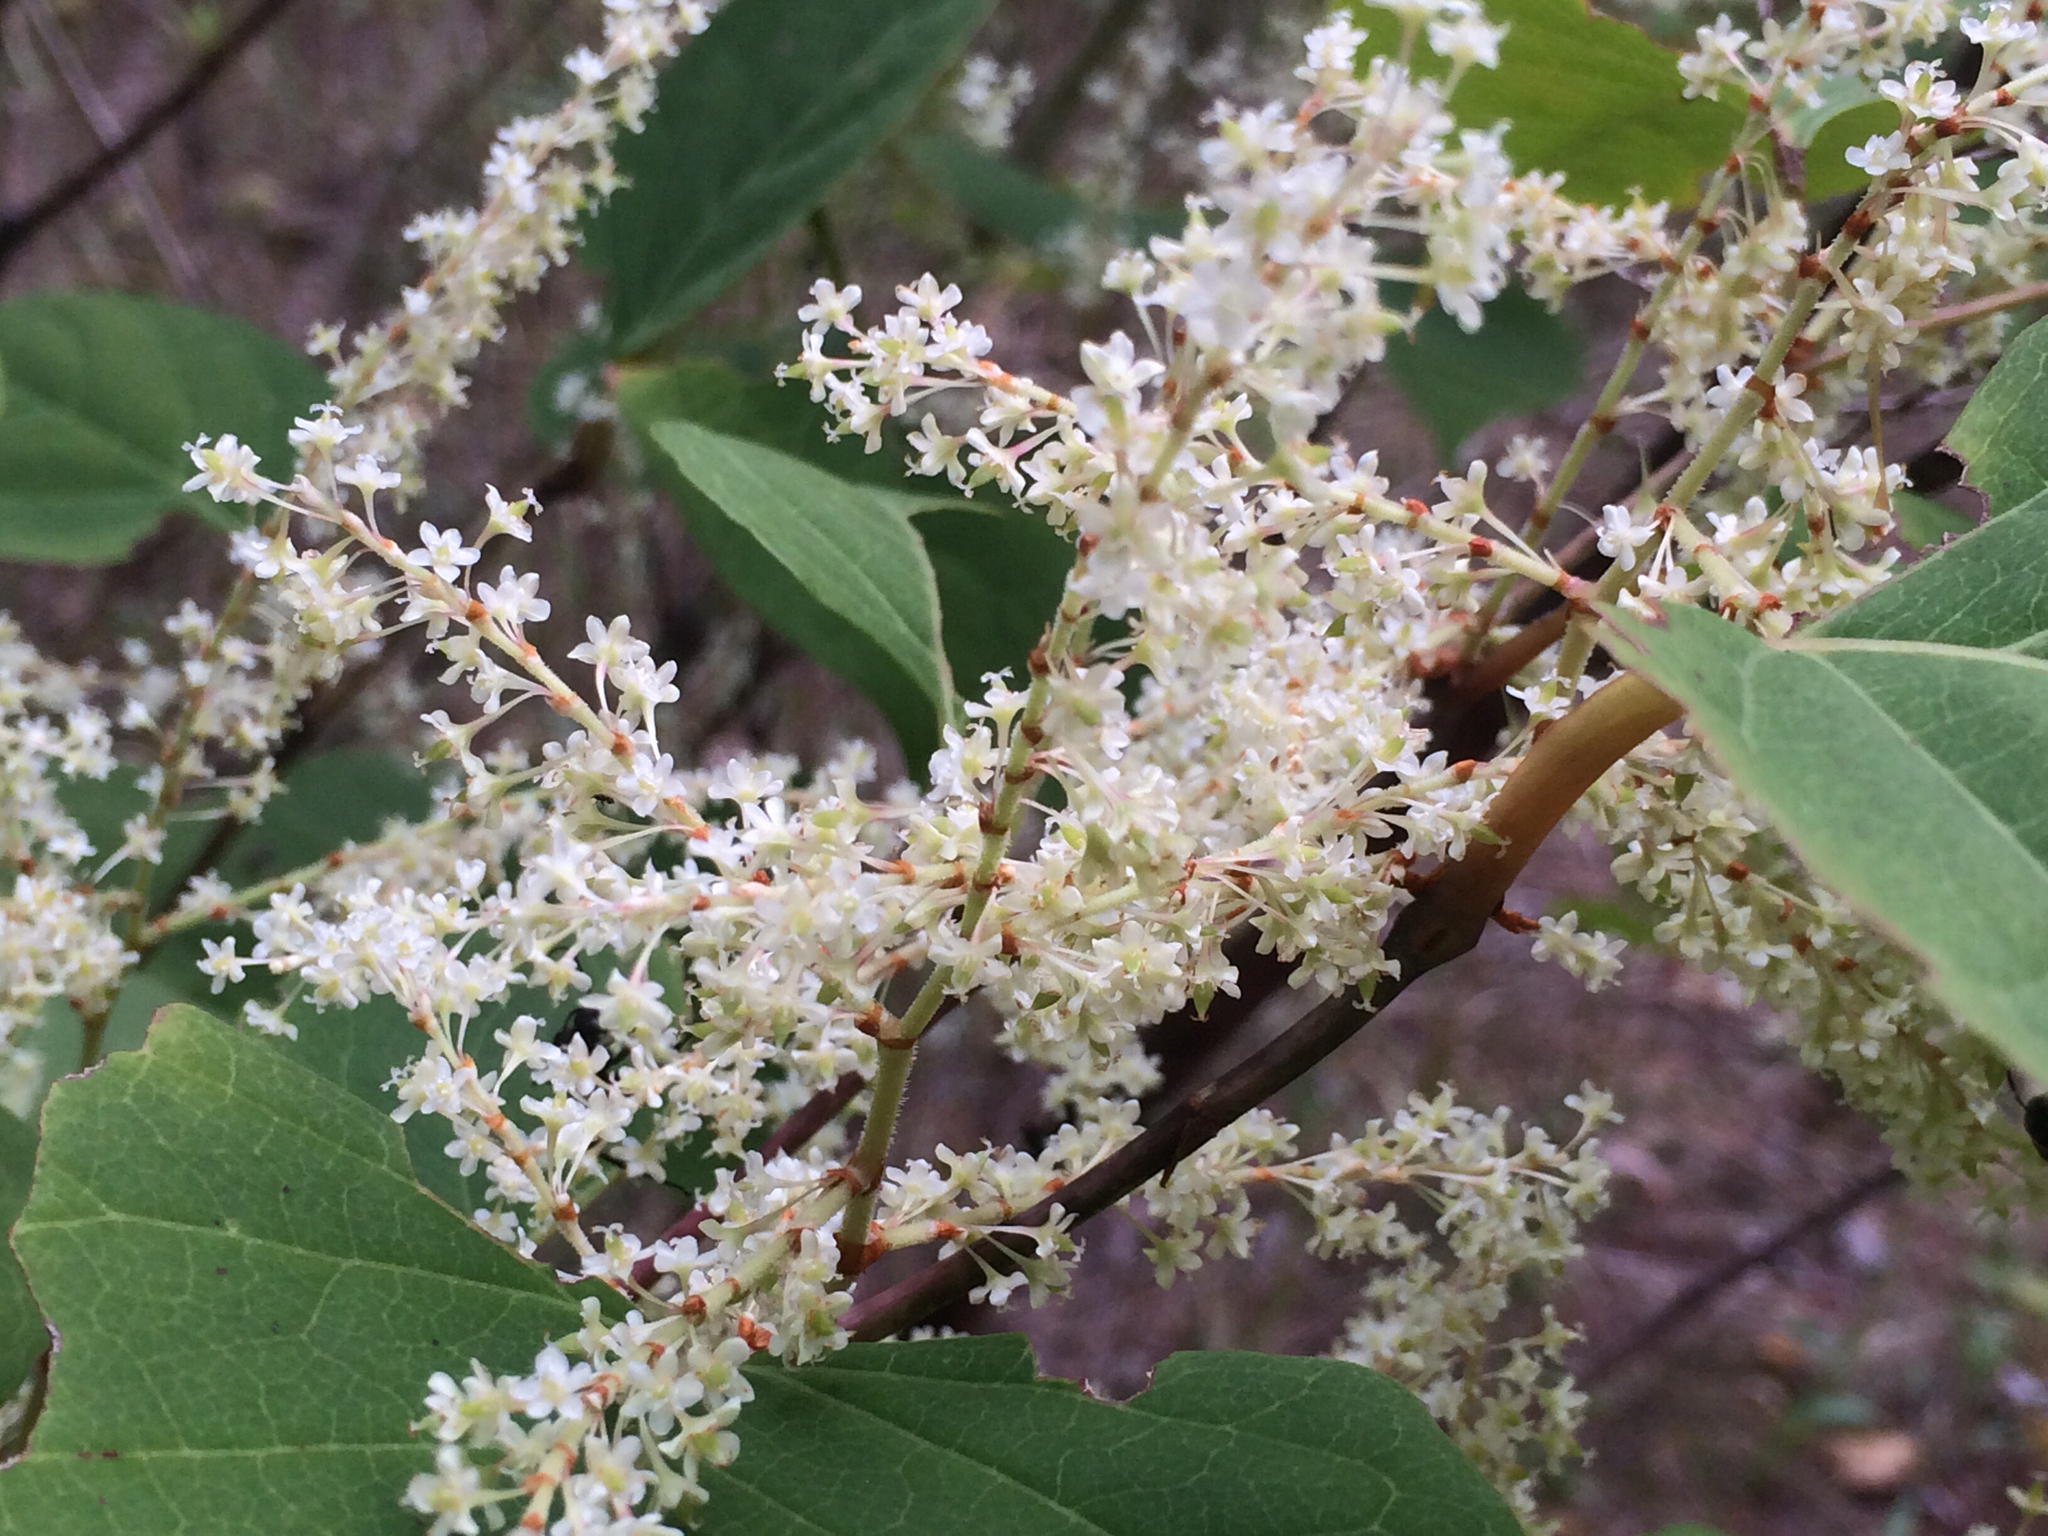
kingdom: Plantae
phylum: Tracheophyta
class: Magnoliopsida
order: Caryophyllales
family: Polygonaceae
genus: Reynoutria
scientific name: Reynoutria japonica
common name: Japanese knotweed
